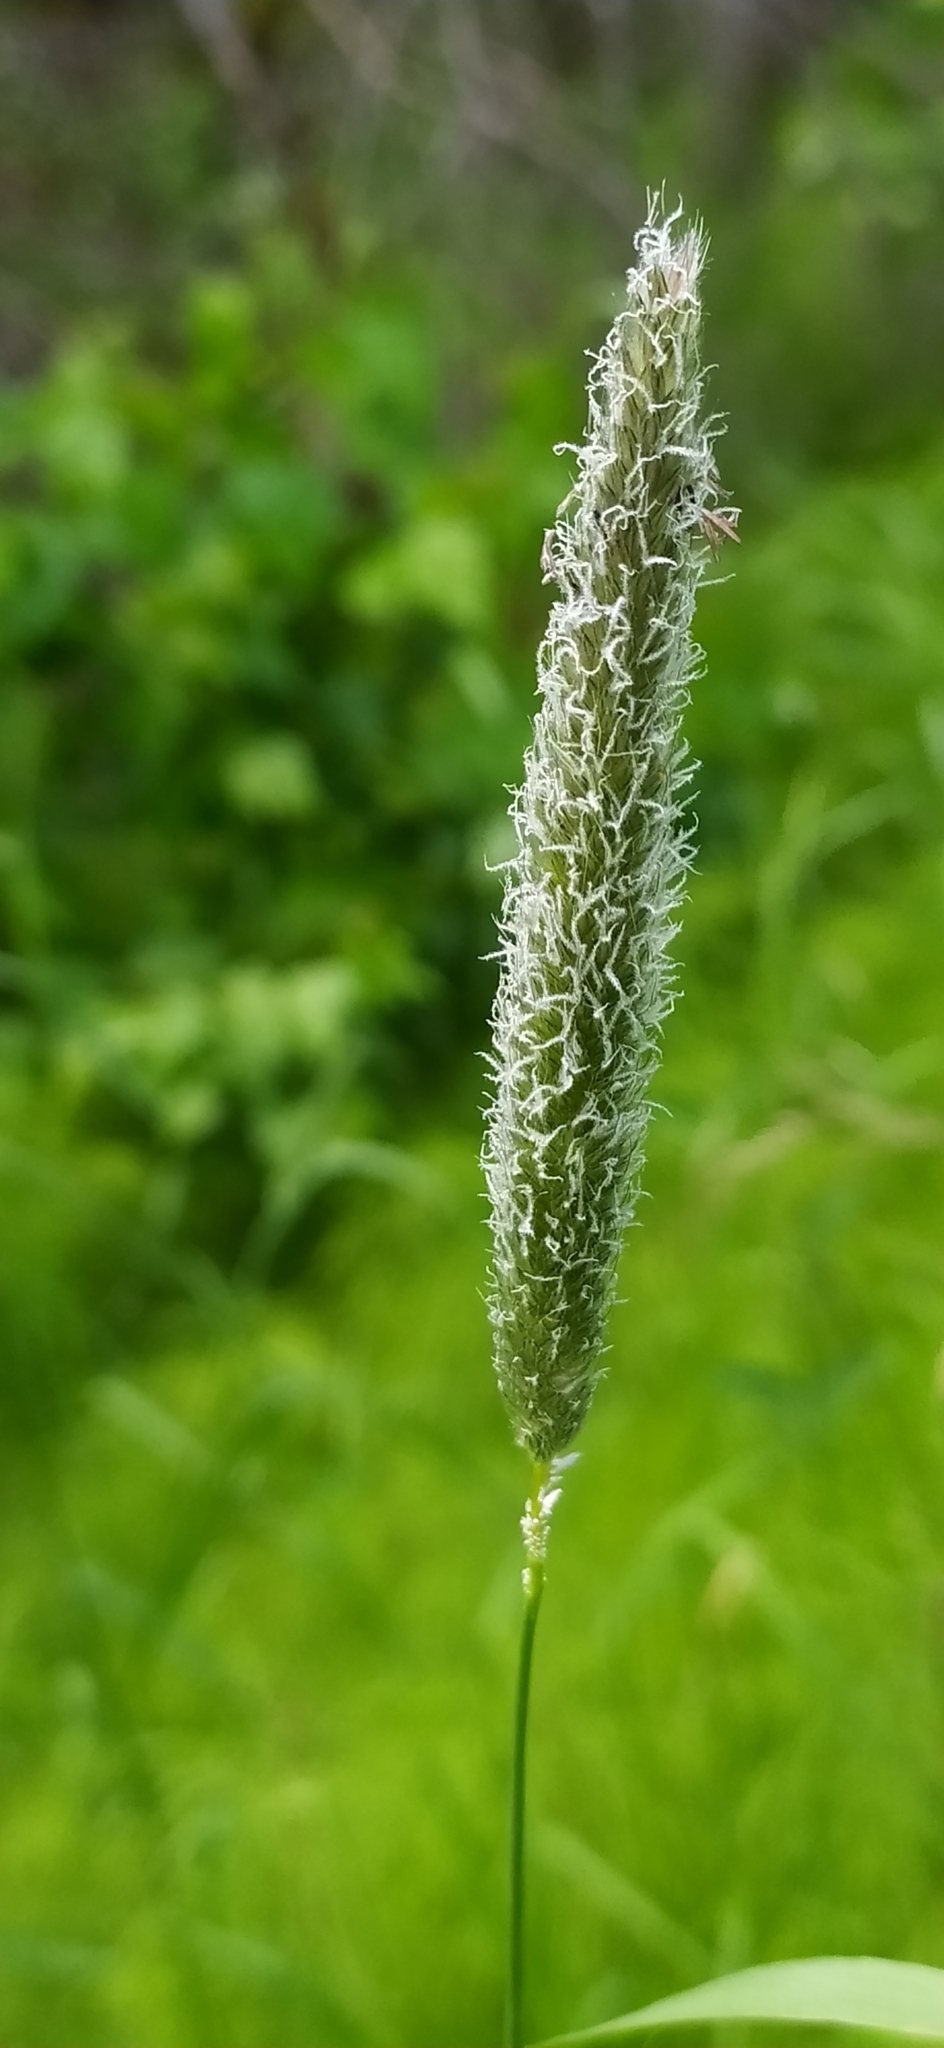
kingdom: Plantae
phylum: Tracheophyta
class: Liliopsida
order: Poales
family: Poaceae
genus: Alopecurus
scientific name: Alopecurus pratensis
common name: Meadow foxtail
